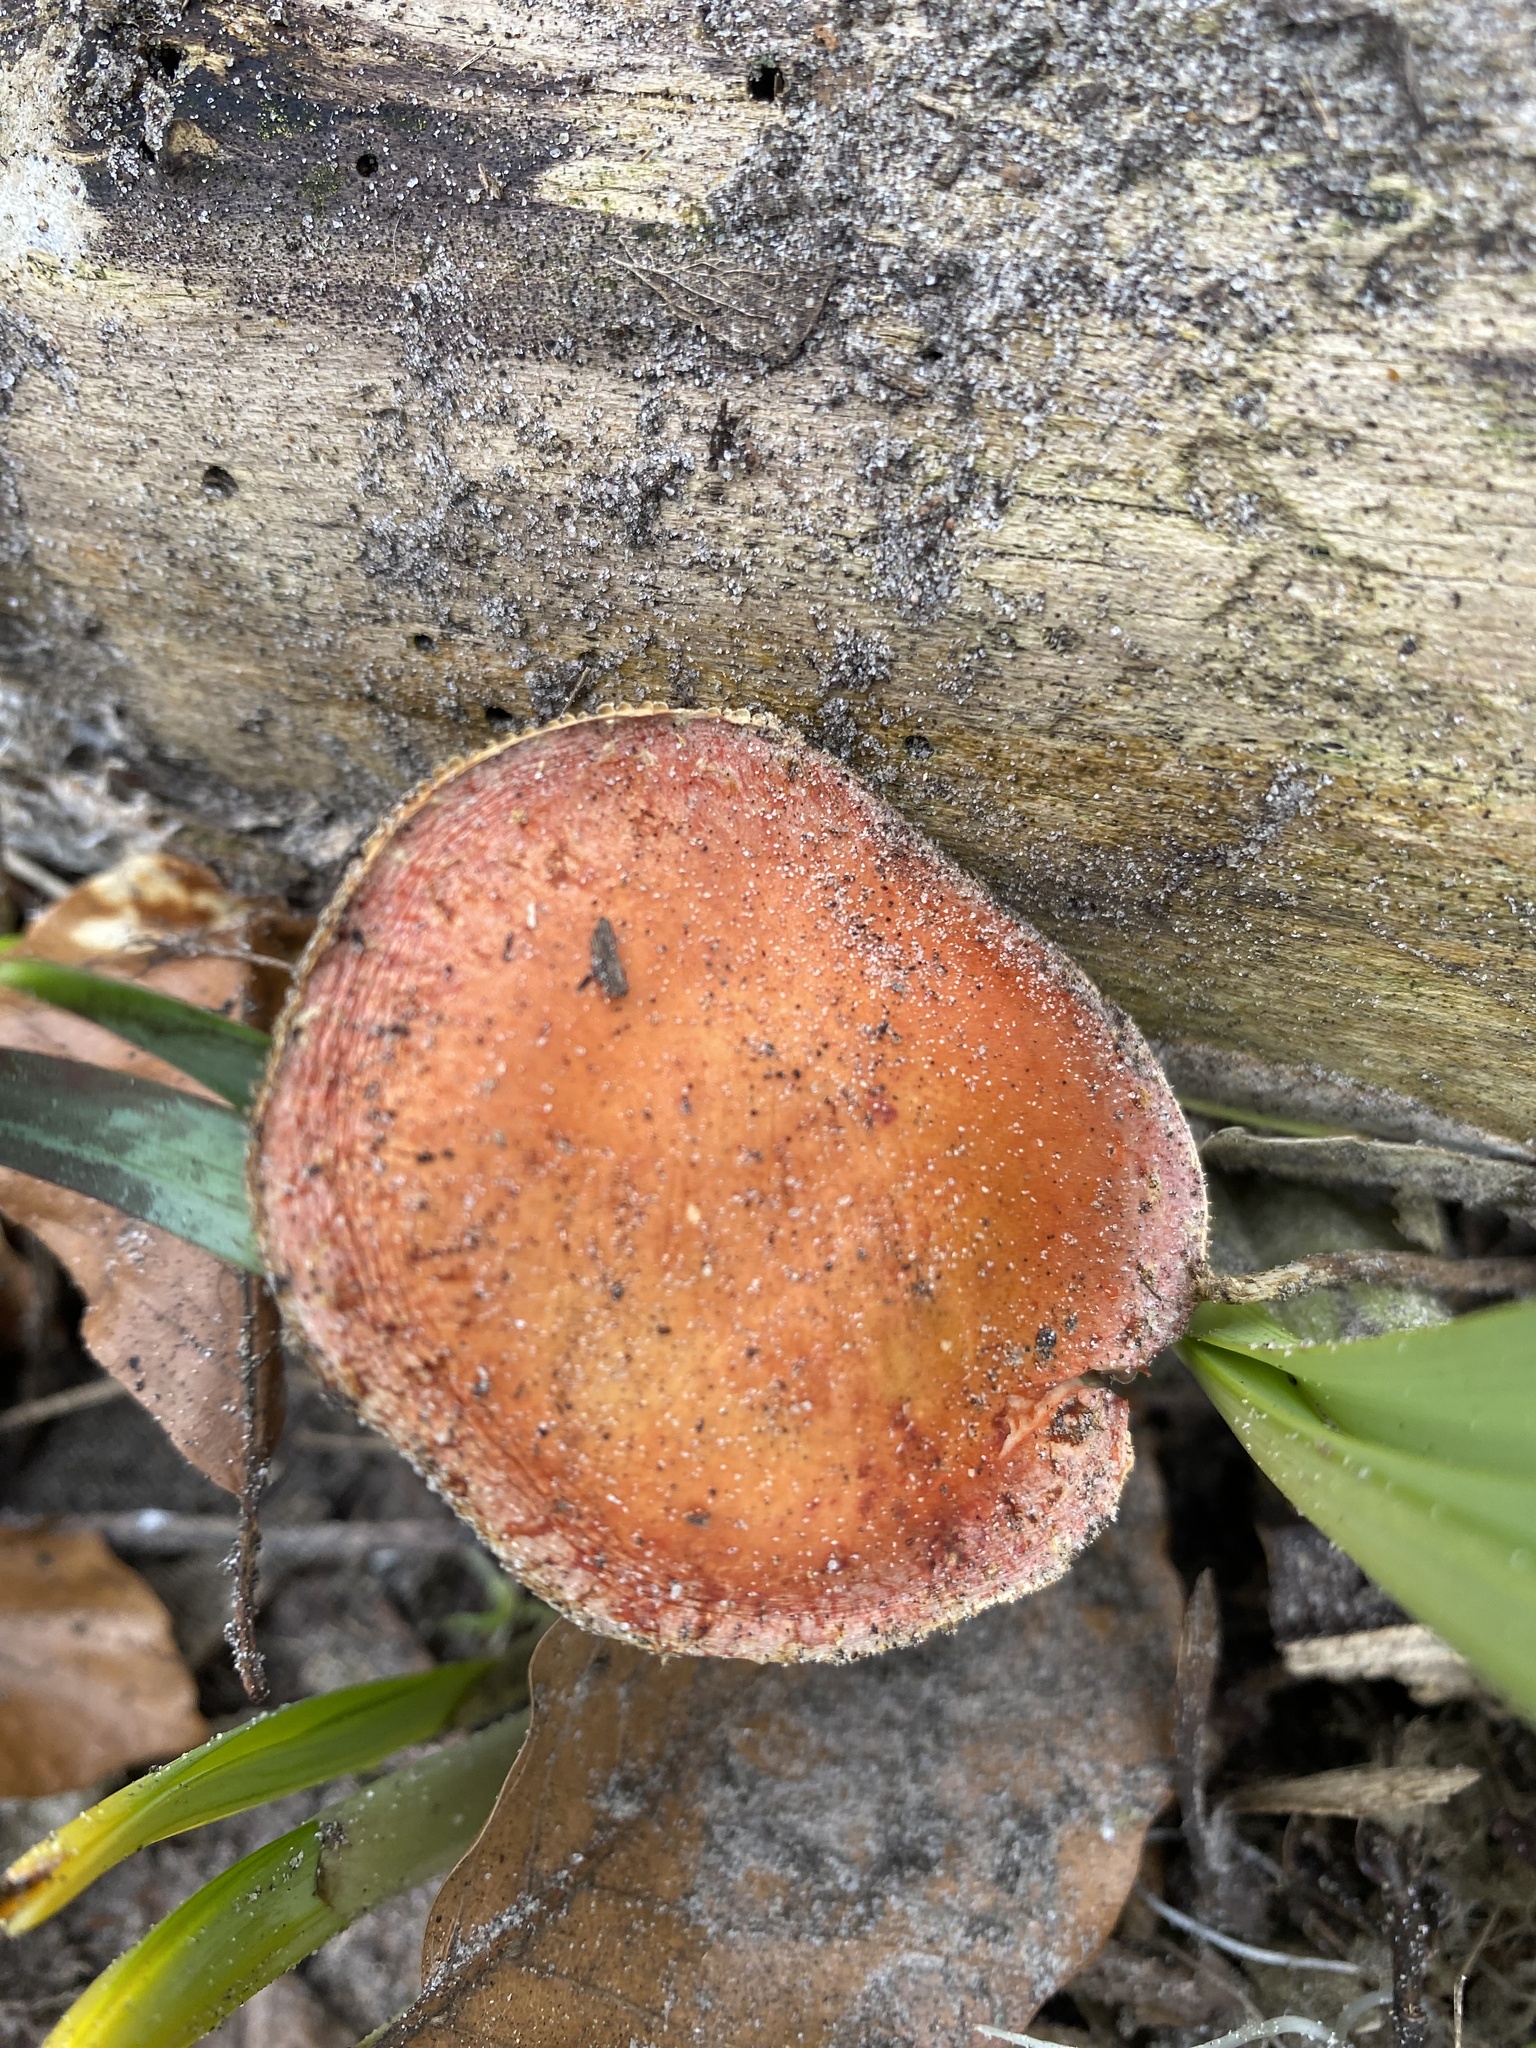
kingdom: Fungi
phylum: Basidiomycota
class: Agaricomycetes
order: Agaricales
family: Strophariaceae
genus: Leratiomyces
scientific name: Leratiomyces ceres
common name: Redlead roundhead
